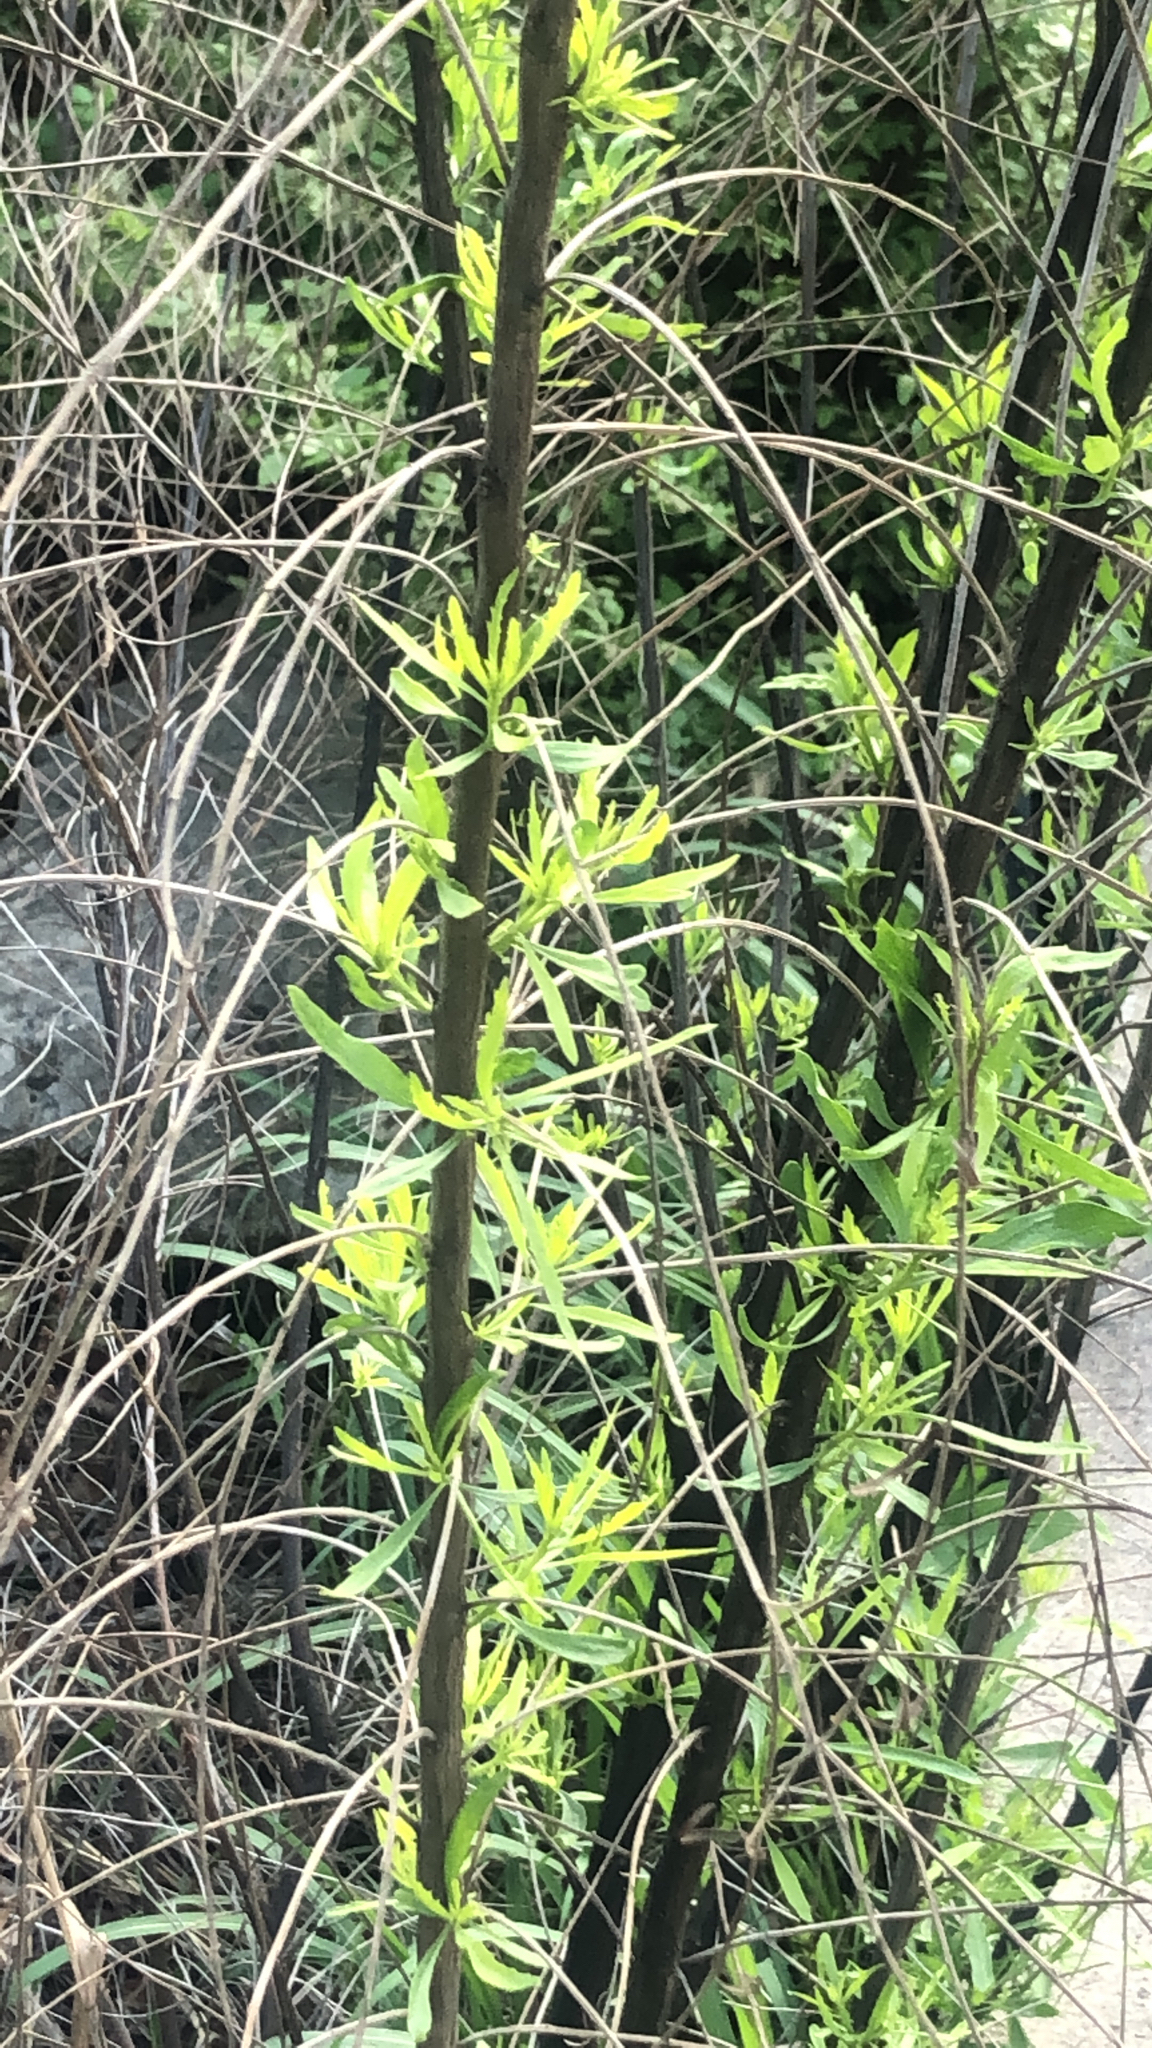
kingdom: Plantae
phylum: Tracheophyta
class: Magnoliopsida
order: Asterales
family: Asteraceae
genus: Baccharis
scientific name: Baccharis neglecta
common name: Roosevelt-weed
